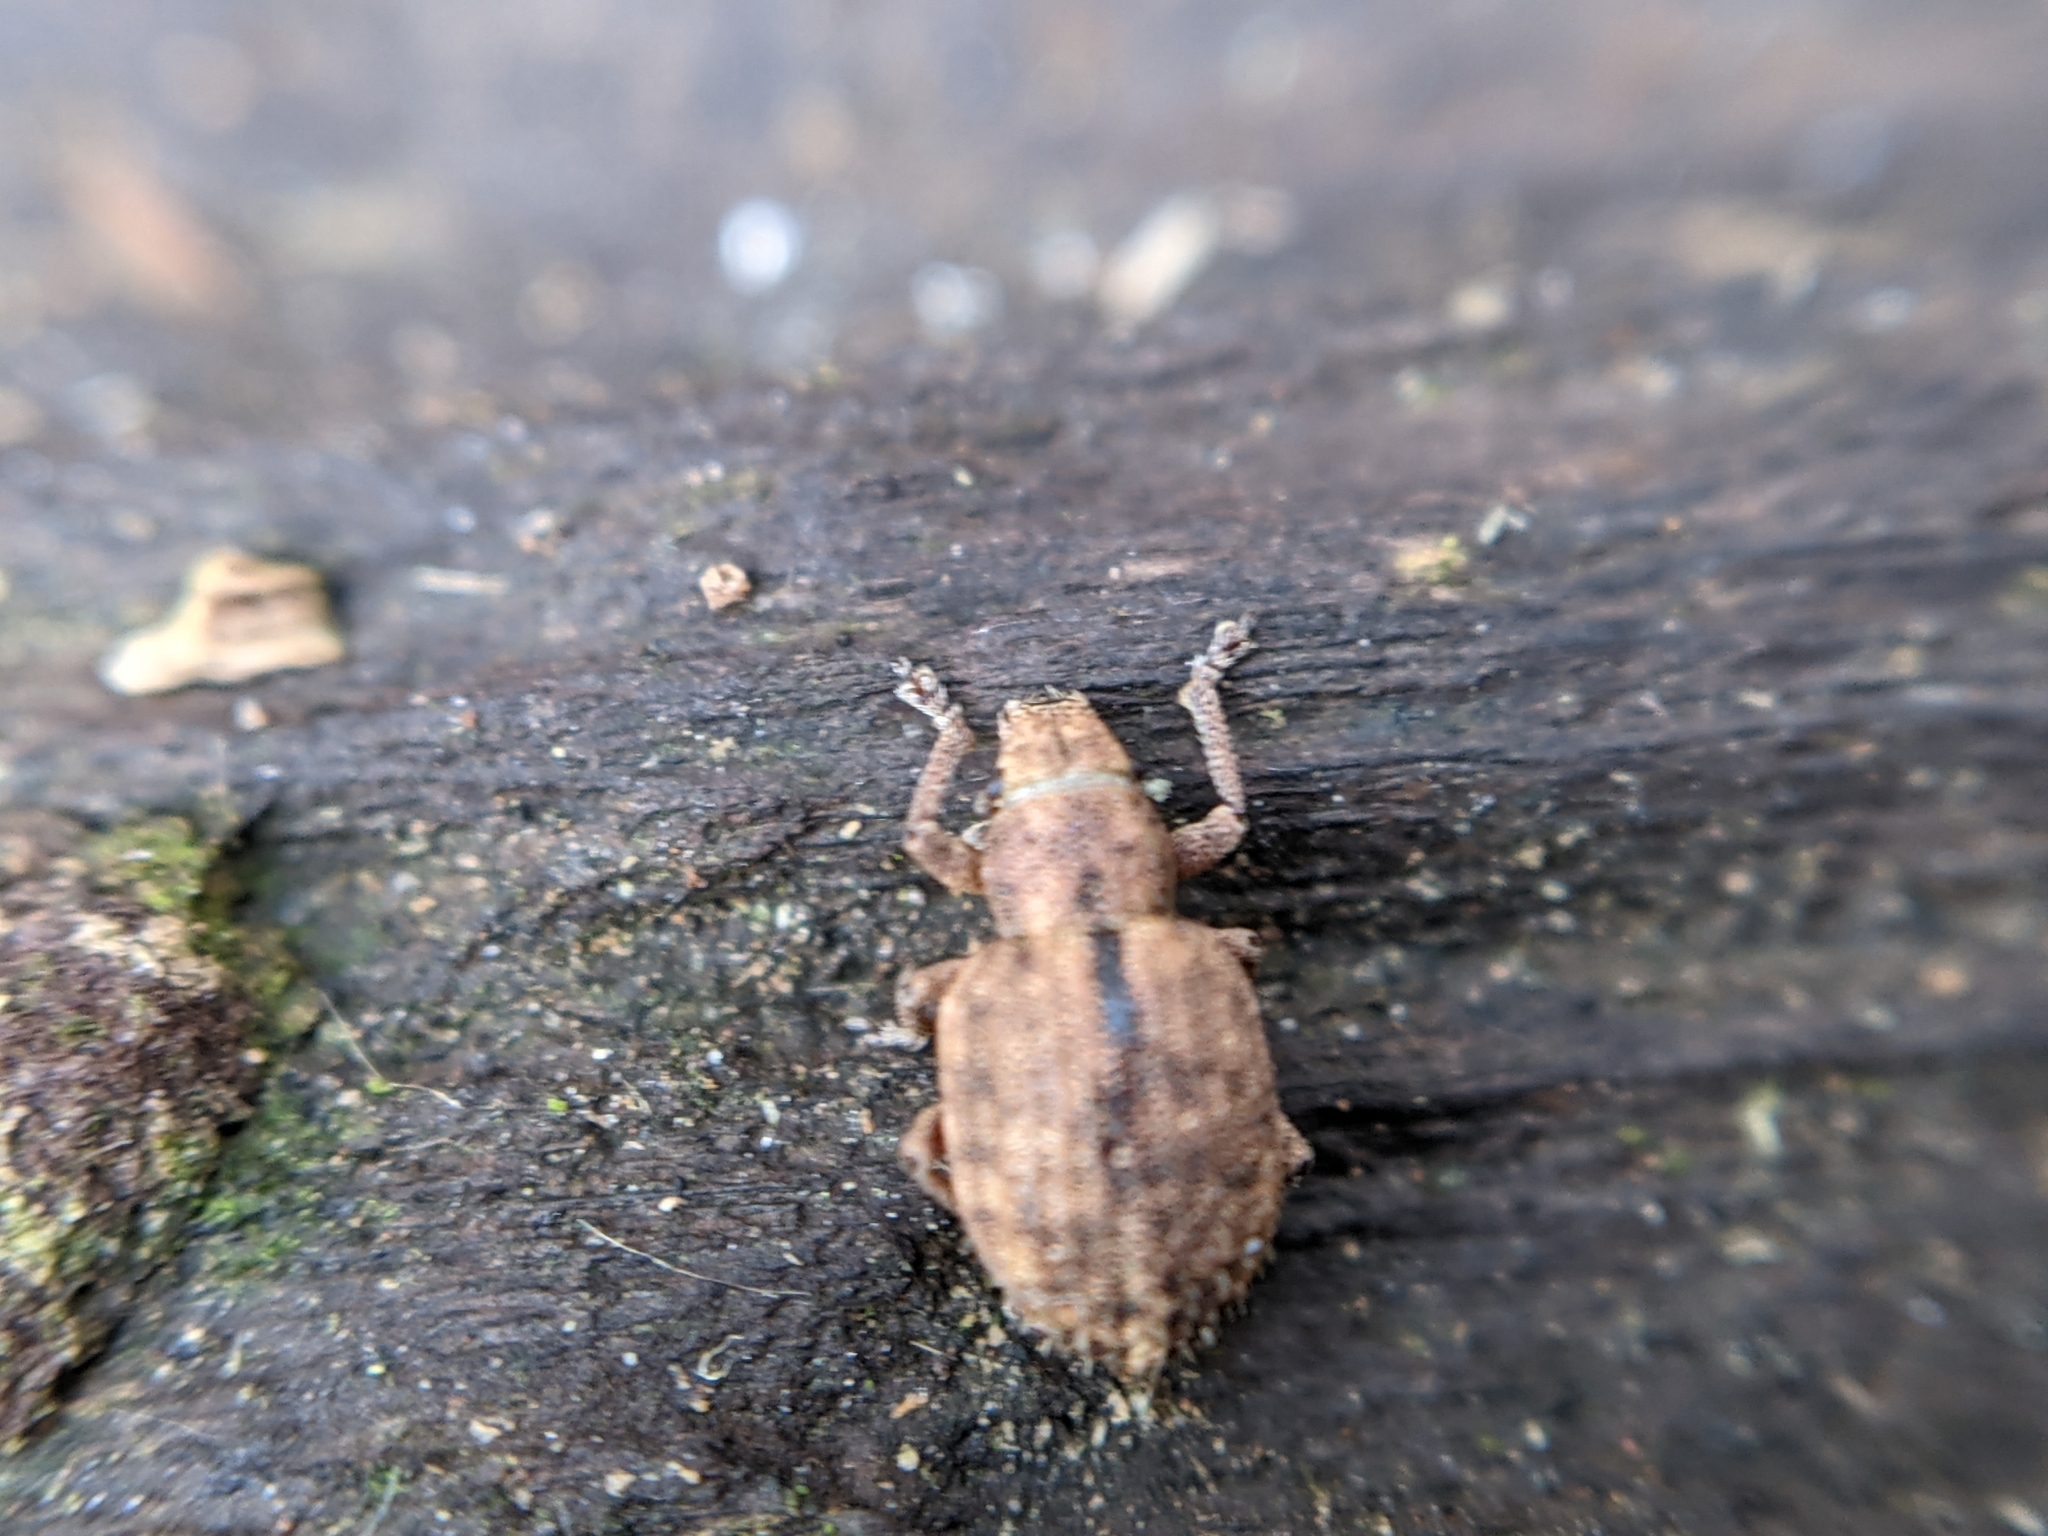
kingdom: Animalia
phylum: Arthropoda
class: Insecta
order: Coleoptera
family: Curculionidae
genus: Strophosoma
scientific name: Strophosoma melanogrammum
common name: Weevil
